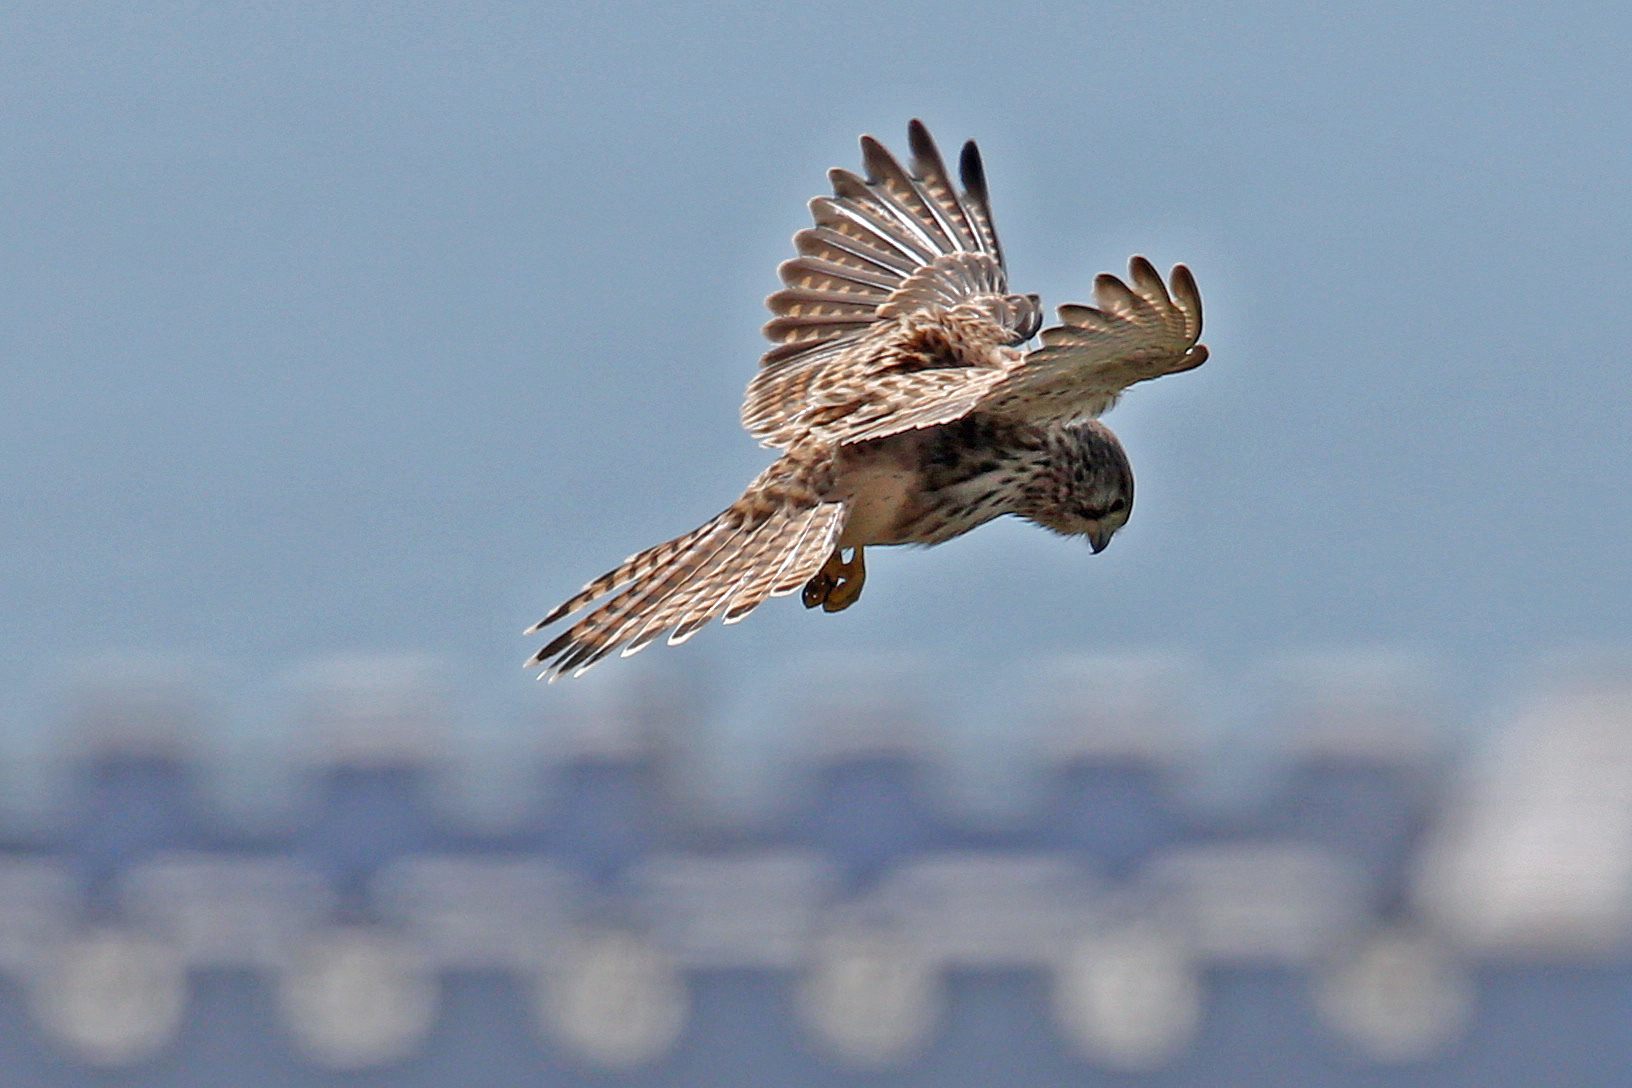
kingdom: Animalia
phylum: Chordata
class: Aves
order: Falconiformes
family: Falconidae
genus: Falco
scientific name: Falco tinnunculus
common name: Common kestrel
